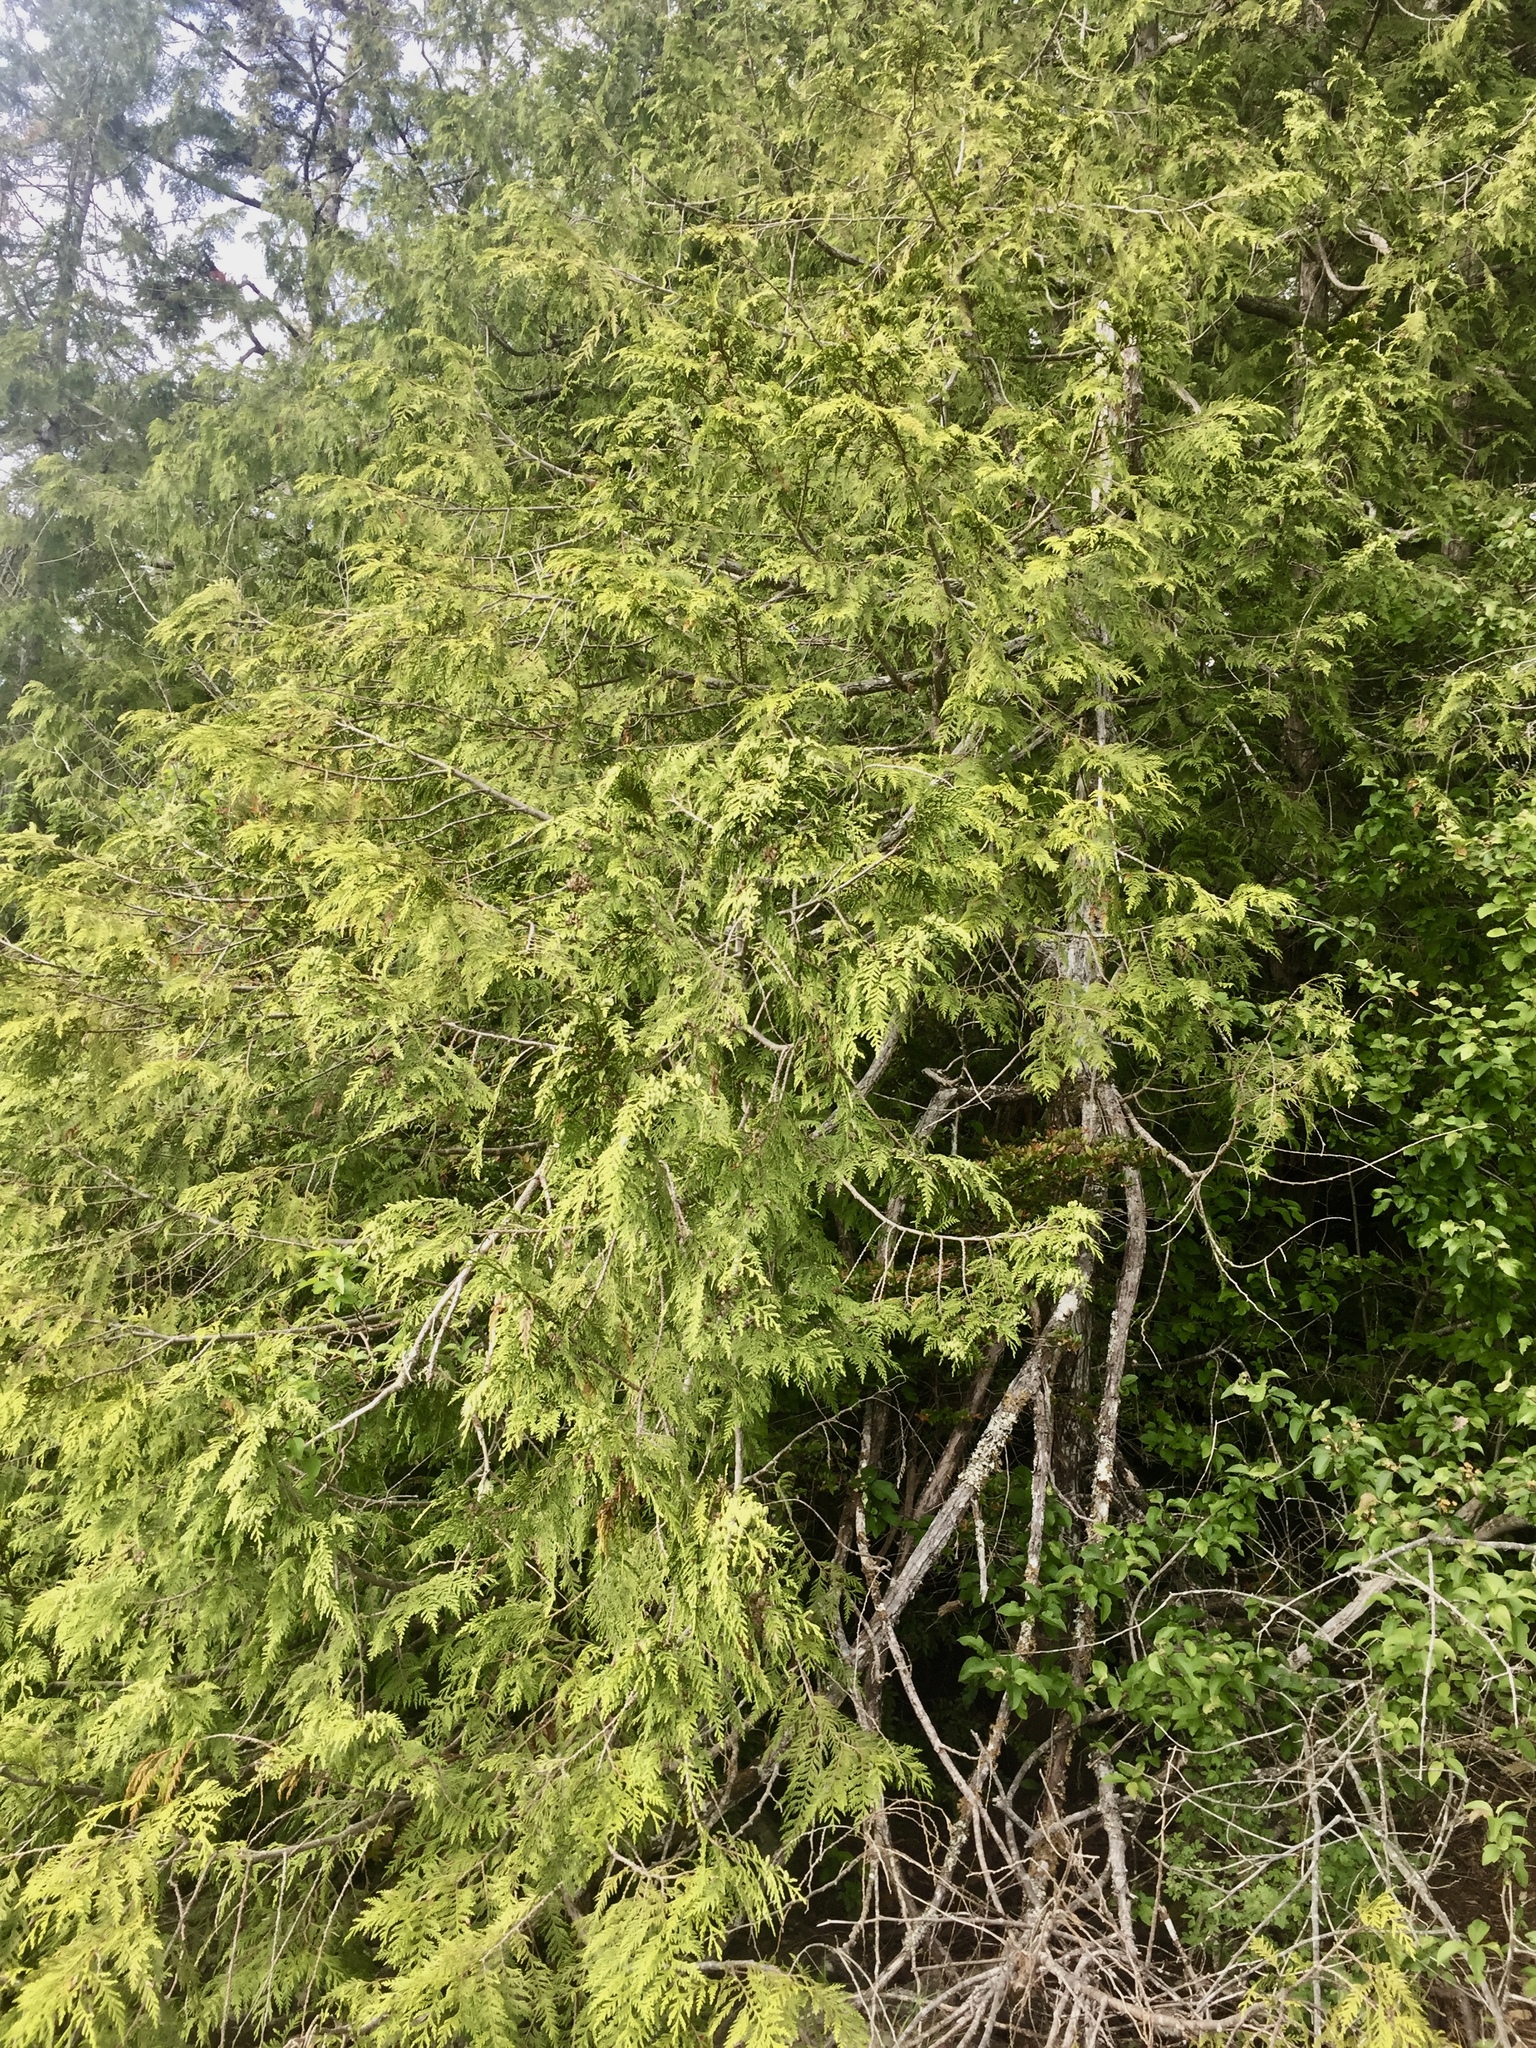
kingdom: Plantae
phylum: Tracheophyta
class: Pinopsida
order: Pinales
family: Cupressaceae
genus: Thuja
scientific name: Thuja plicata
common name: Western red-cedar
